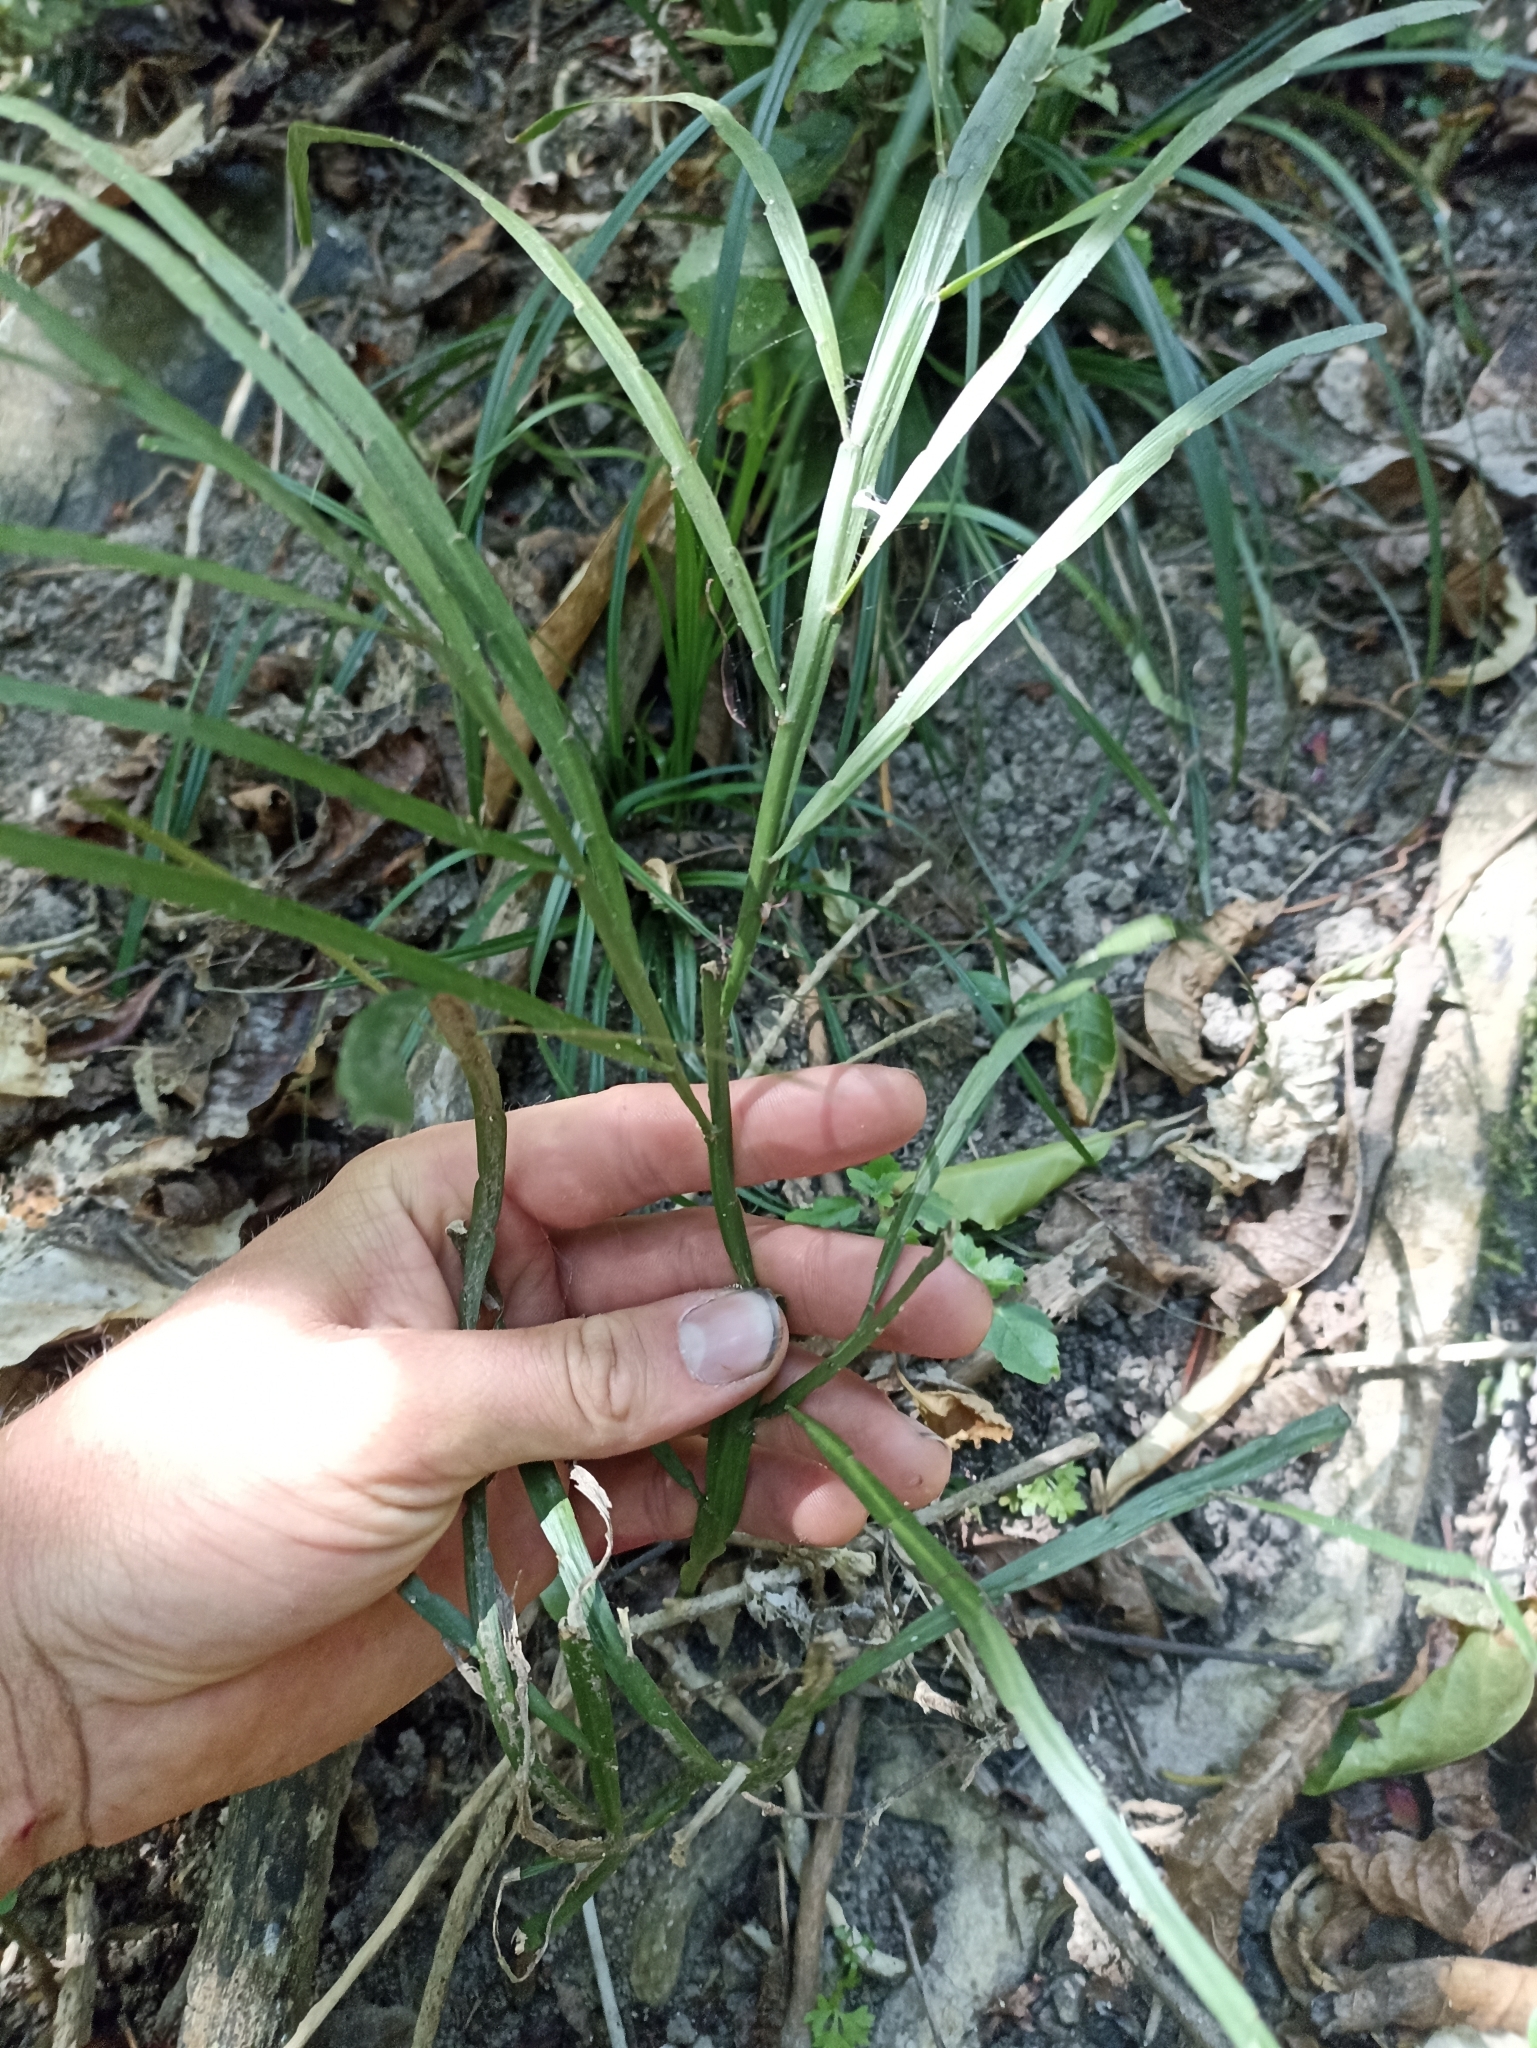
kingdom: Plantae
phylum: Tracheophyta
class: Magnoliopsida
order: Fabales
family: Fabaceae
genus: Carmichaelia
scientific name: Carmichaelia australis
